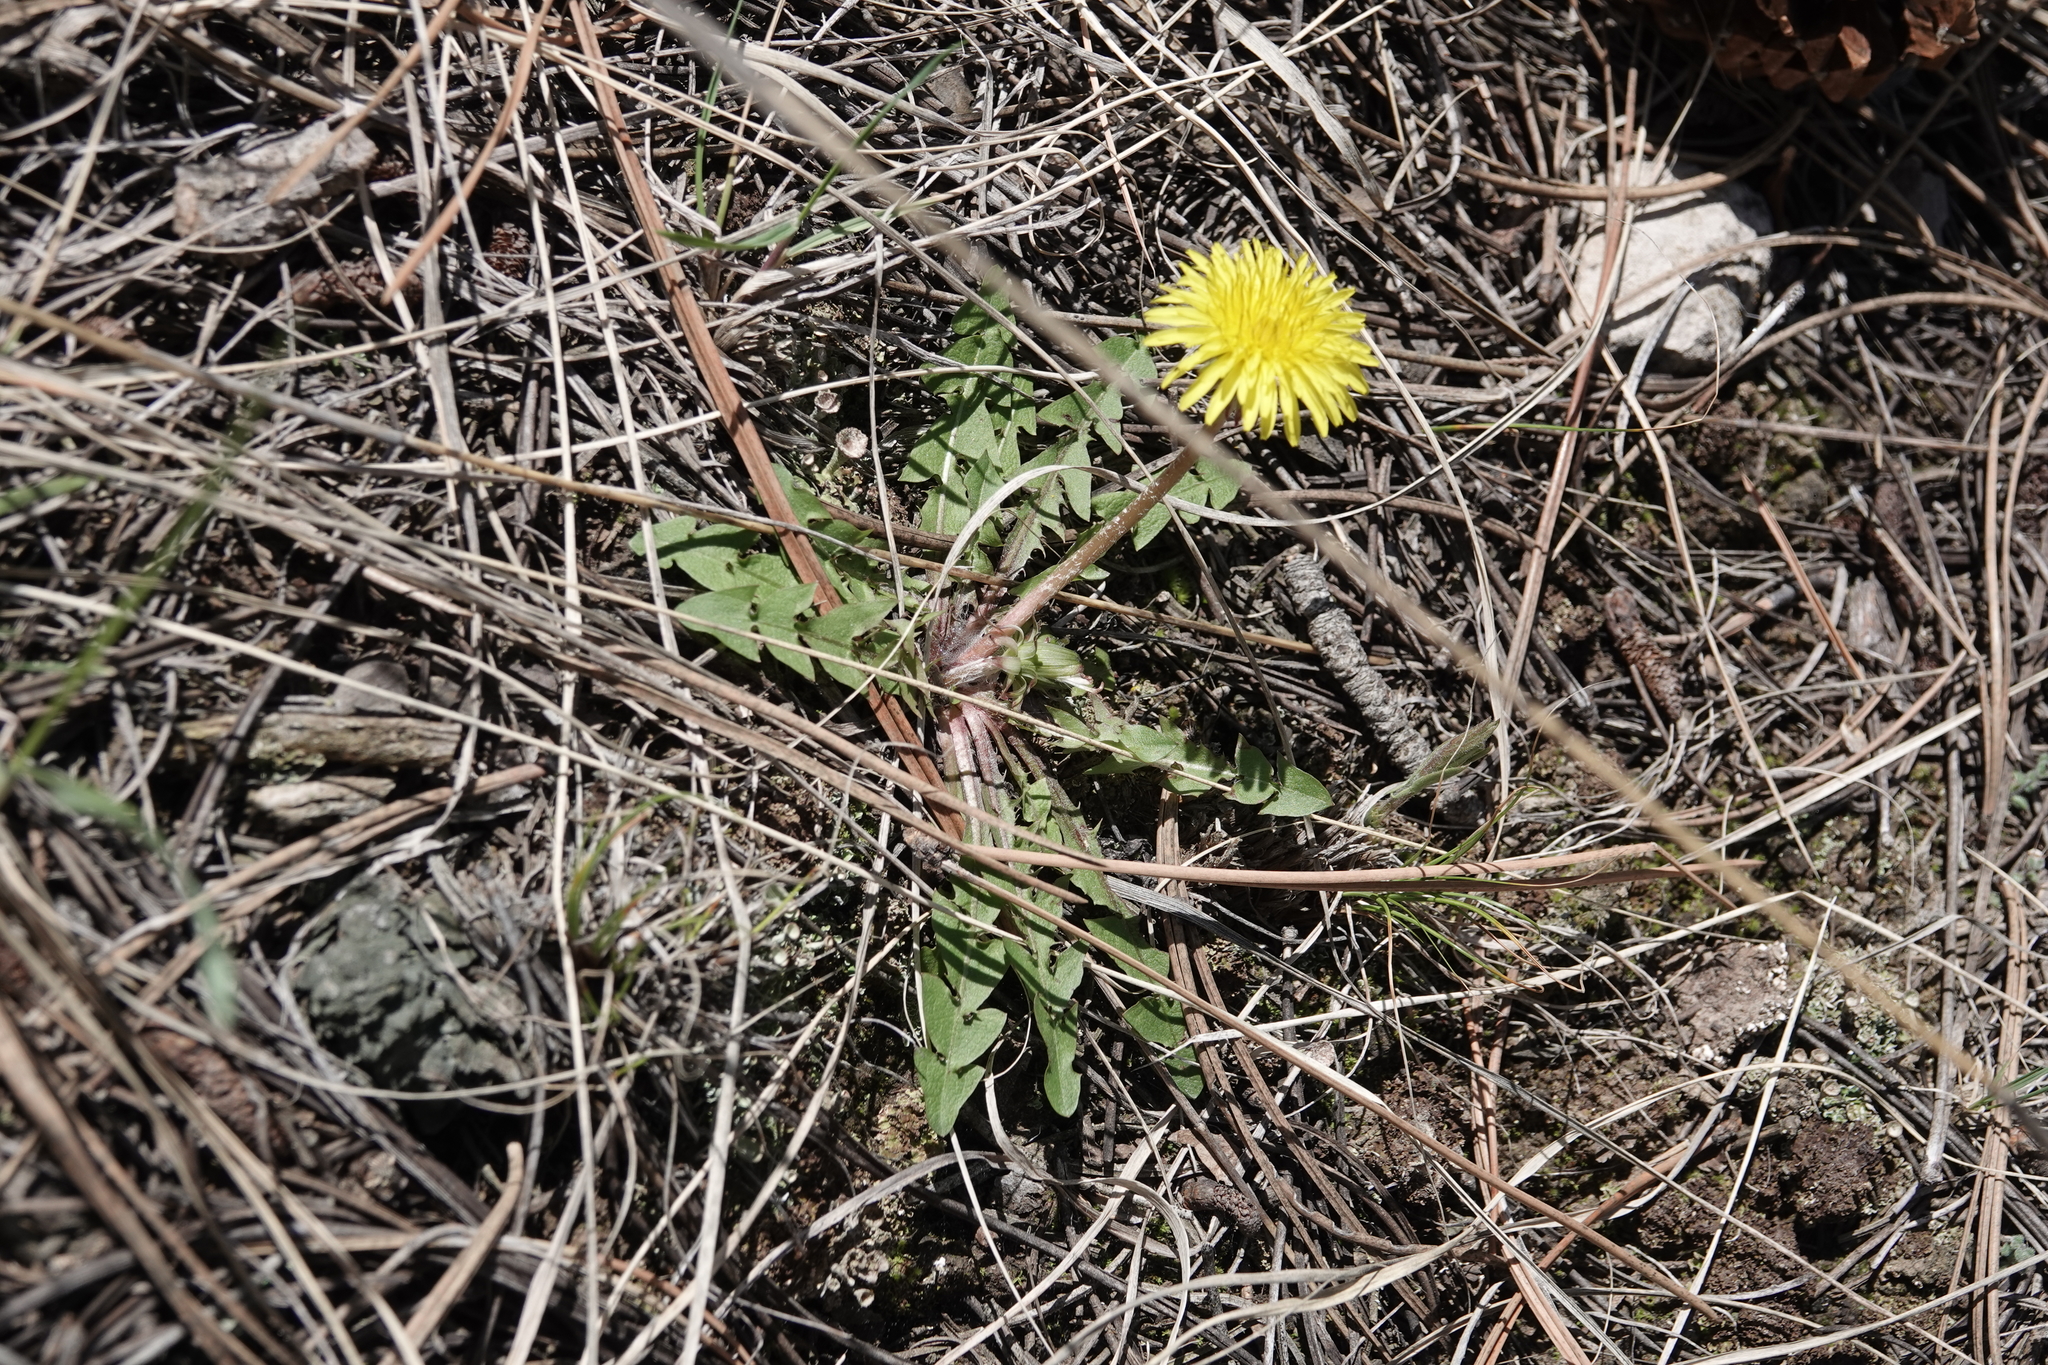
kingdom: Plantae
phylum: Tracheophyta
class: Magnoliopsida
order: Asterales
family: Asteraceae
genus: Taraxacum
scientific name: Taraxacum
